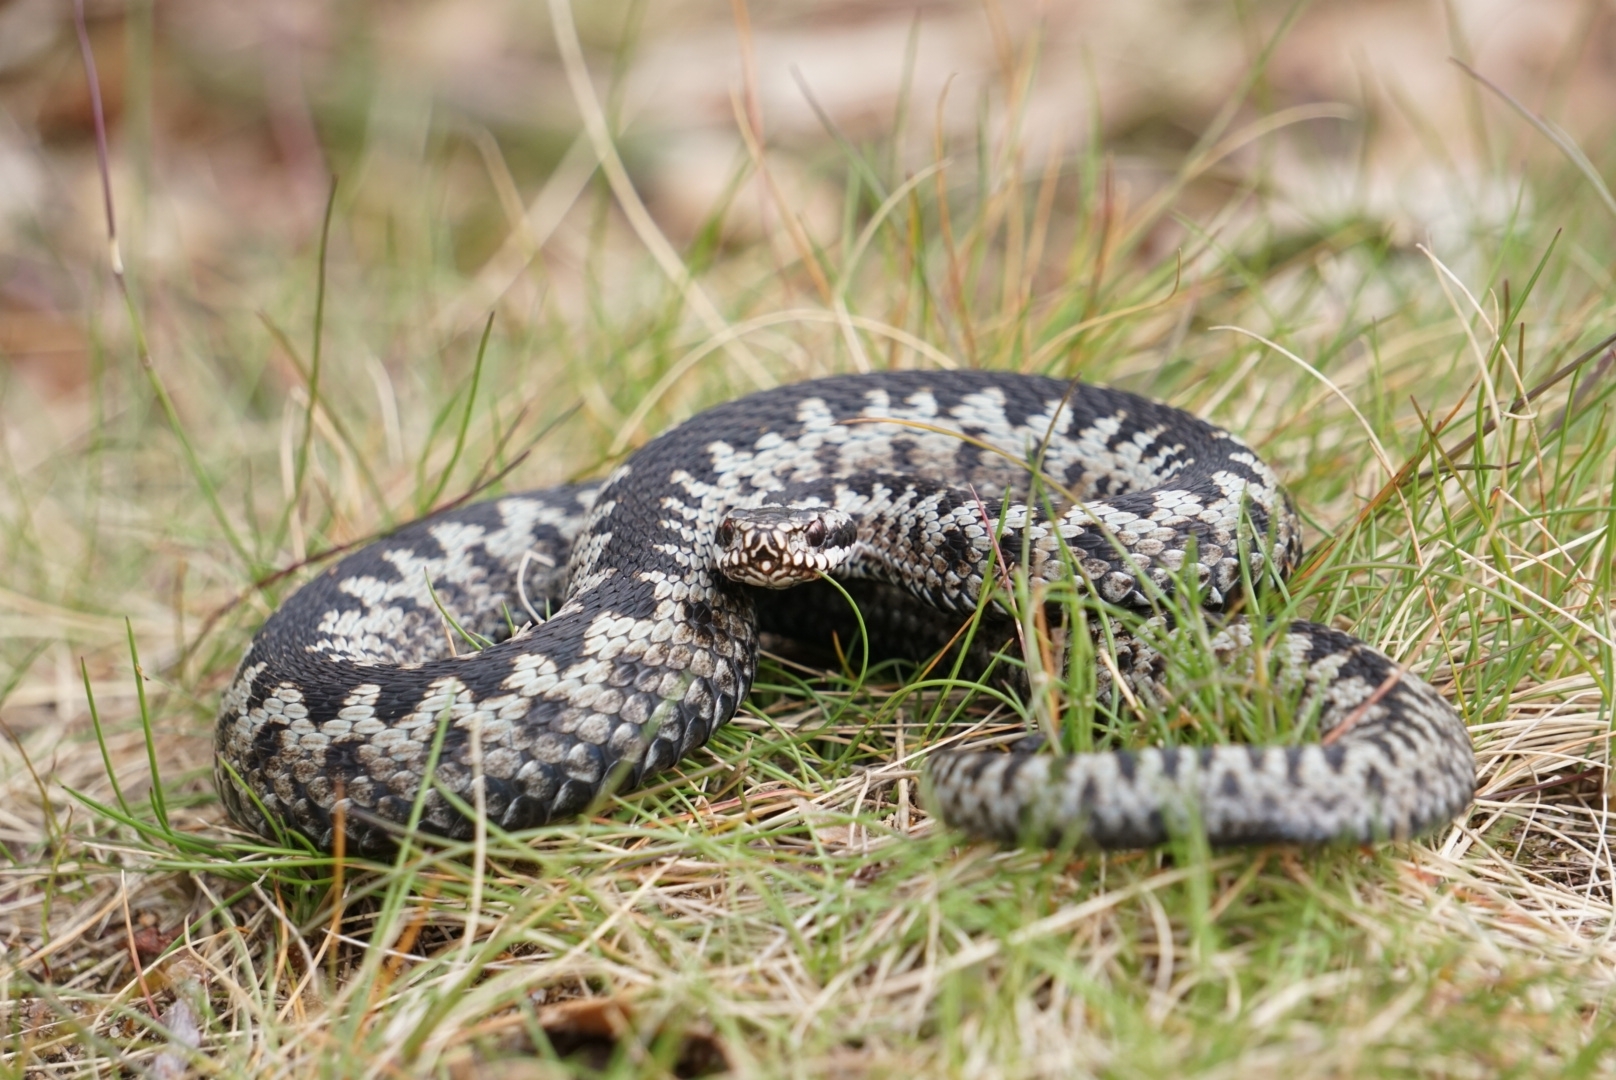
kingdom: Animalia
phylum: Chordata
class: Squamata
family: Viperidae
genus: Vipera
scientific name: Vipera berus
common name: Adder
